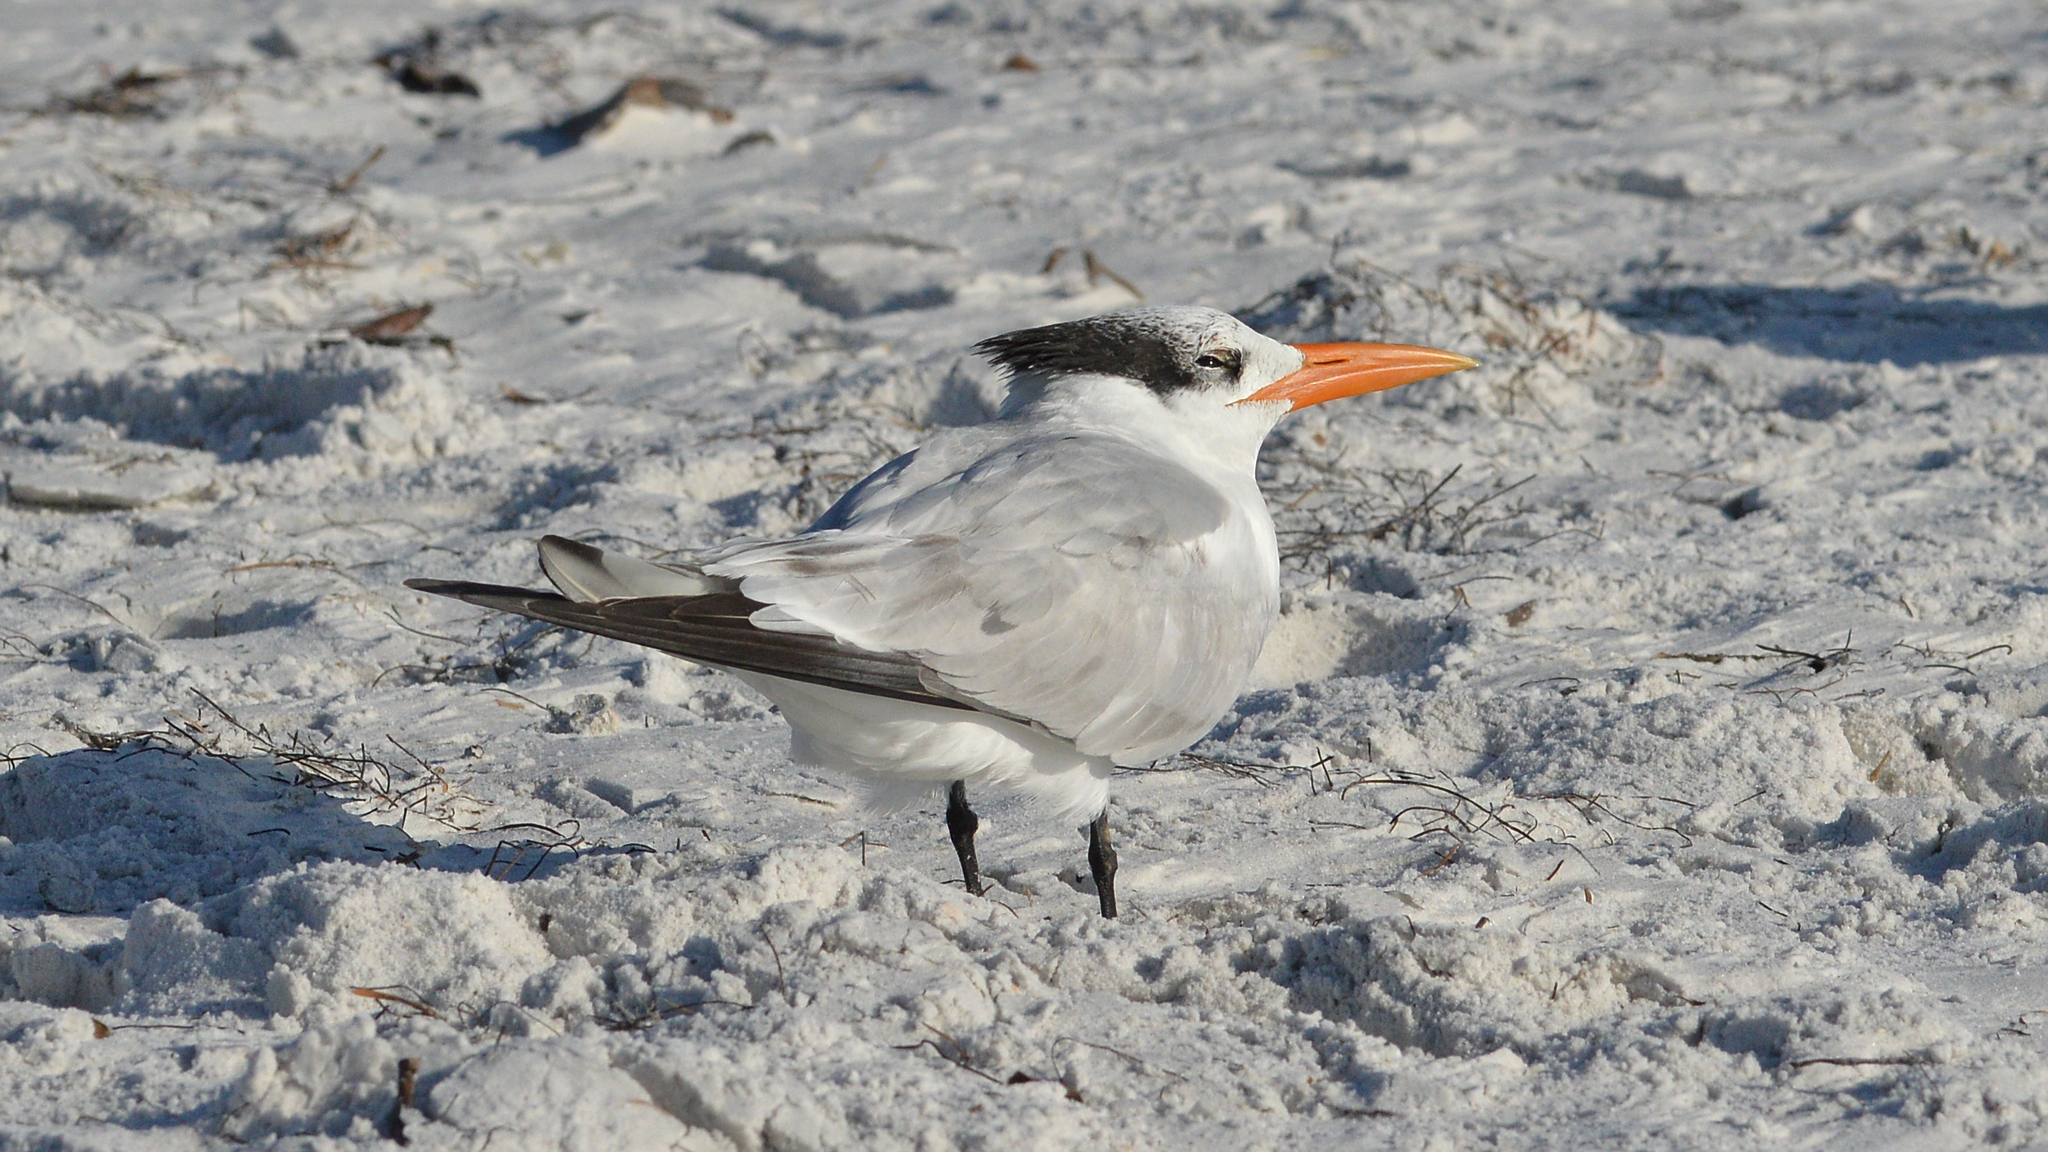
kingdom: Animalia
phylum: Chordata
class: Aves
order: Charadriiformes
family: Laridae
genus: Thalasseus
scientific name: Thalasseus maximus
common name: Royal tern
